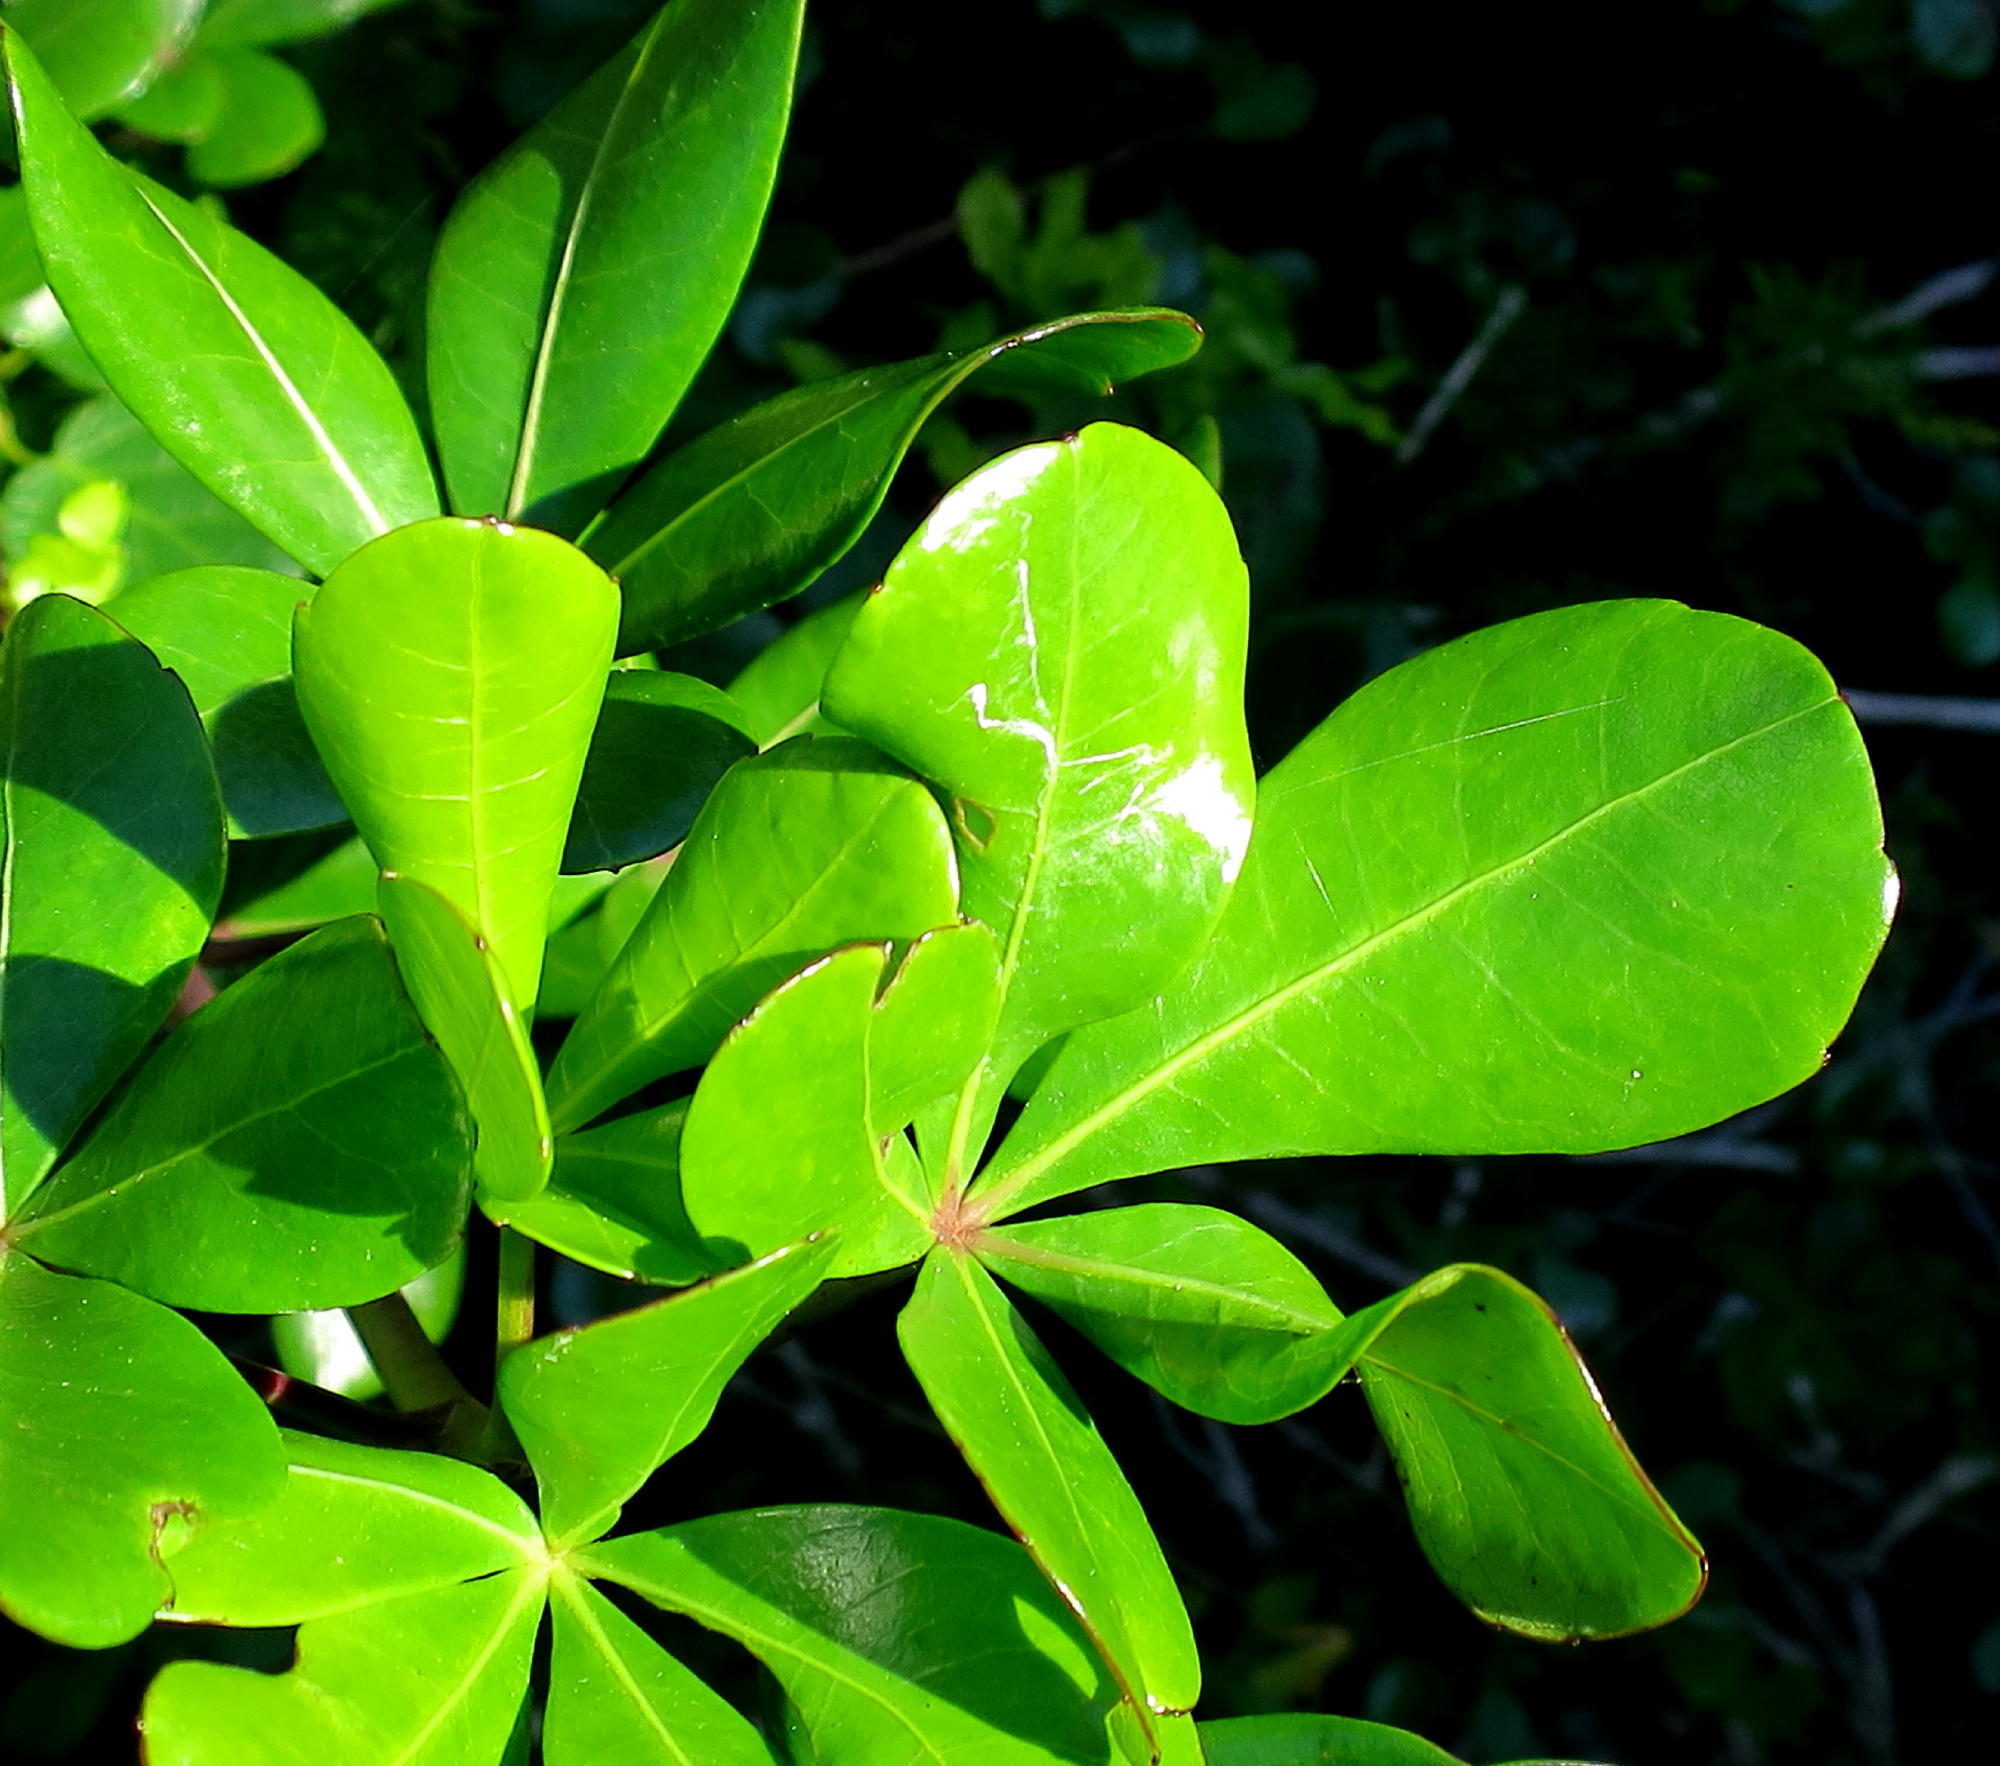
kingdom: Plantae
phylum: Tracheophyta
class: Magnoliopsida
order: Apiales
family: Araliaceae
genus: Cussonia
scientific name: Cussonia thyrsiflora
